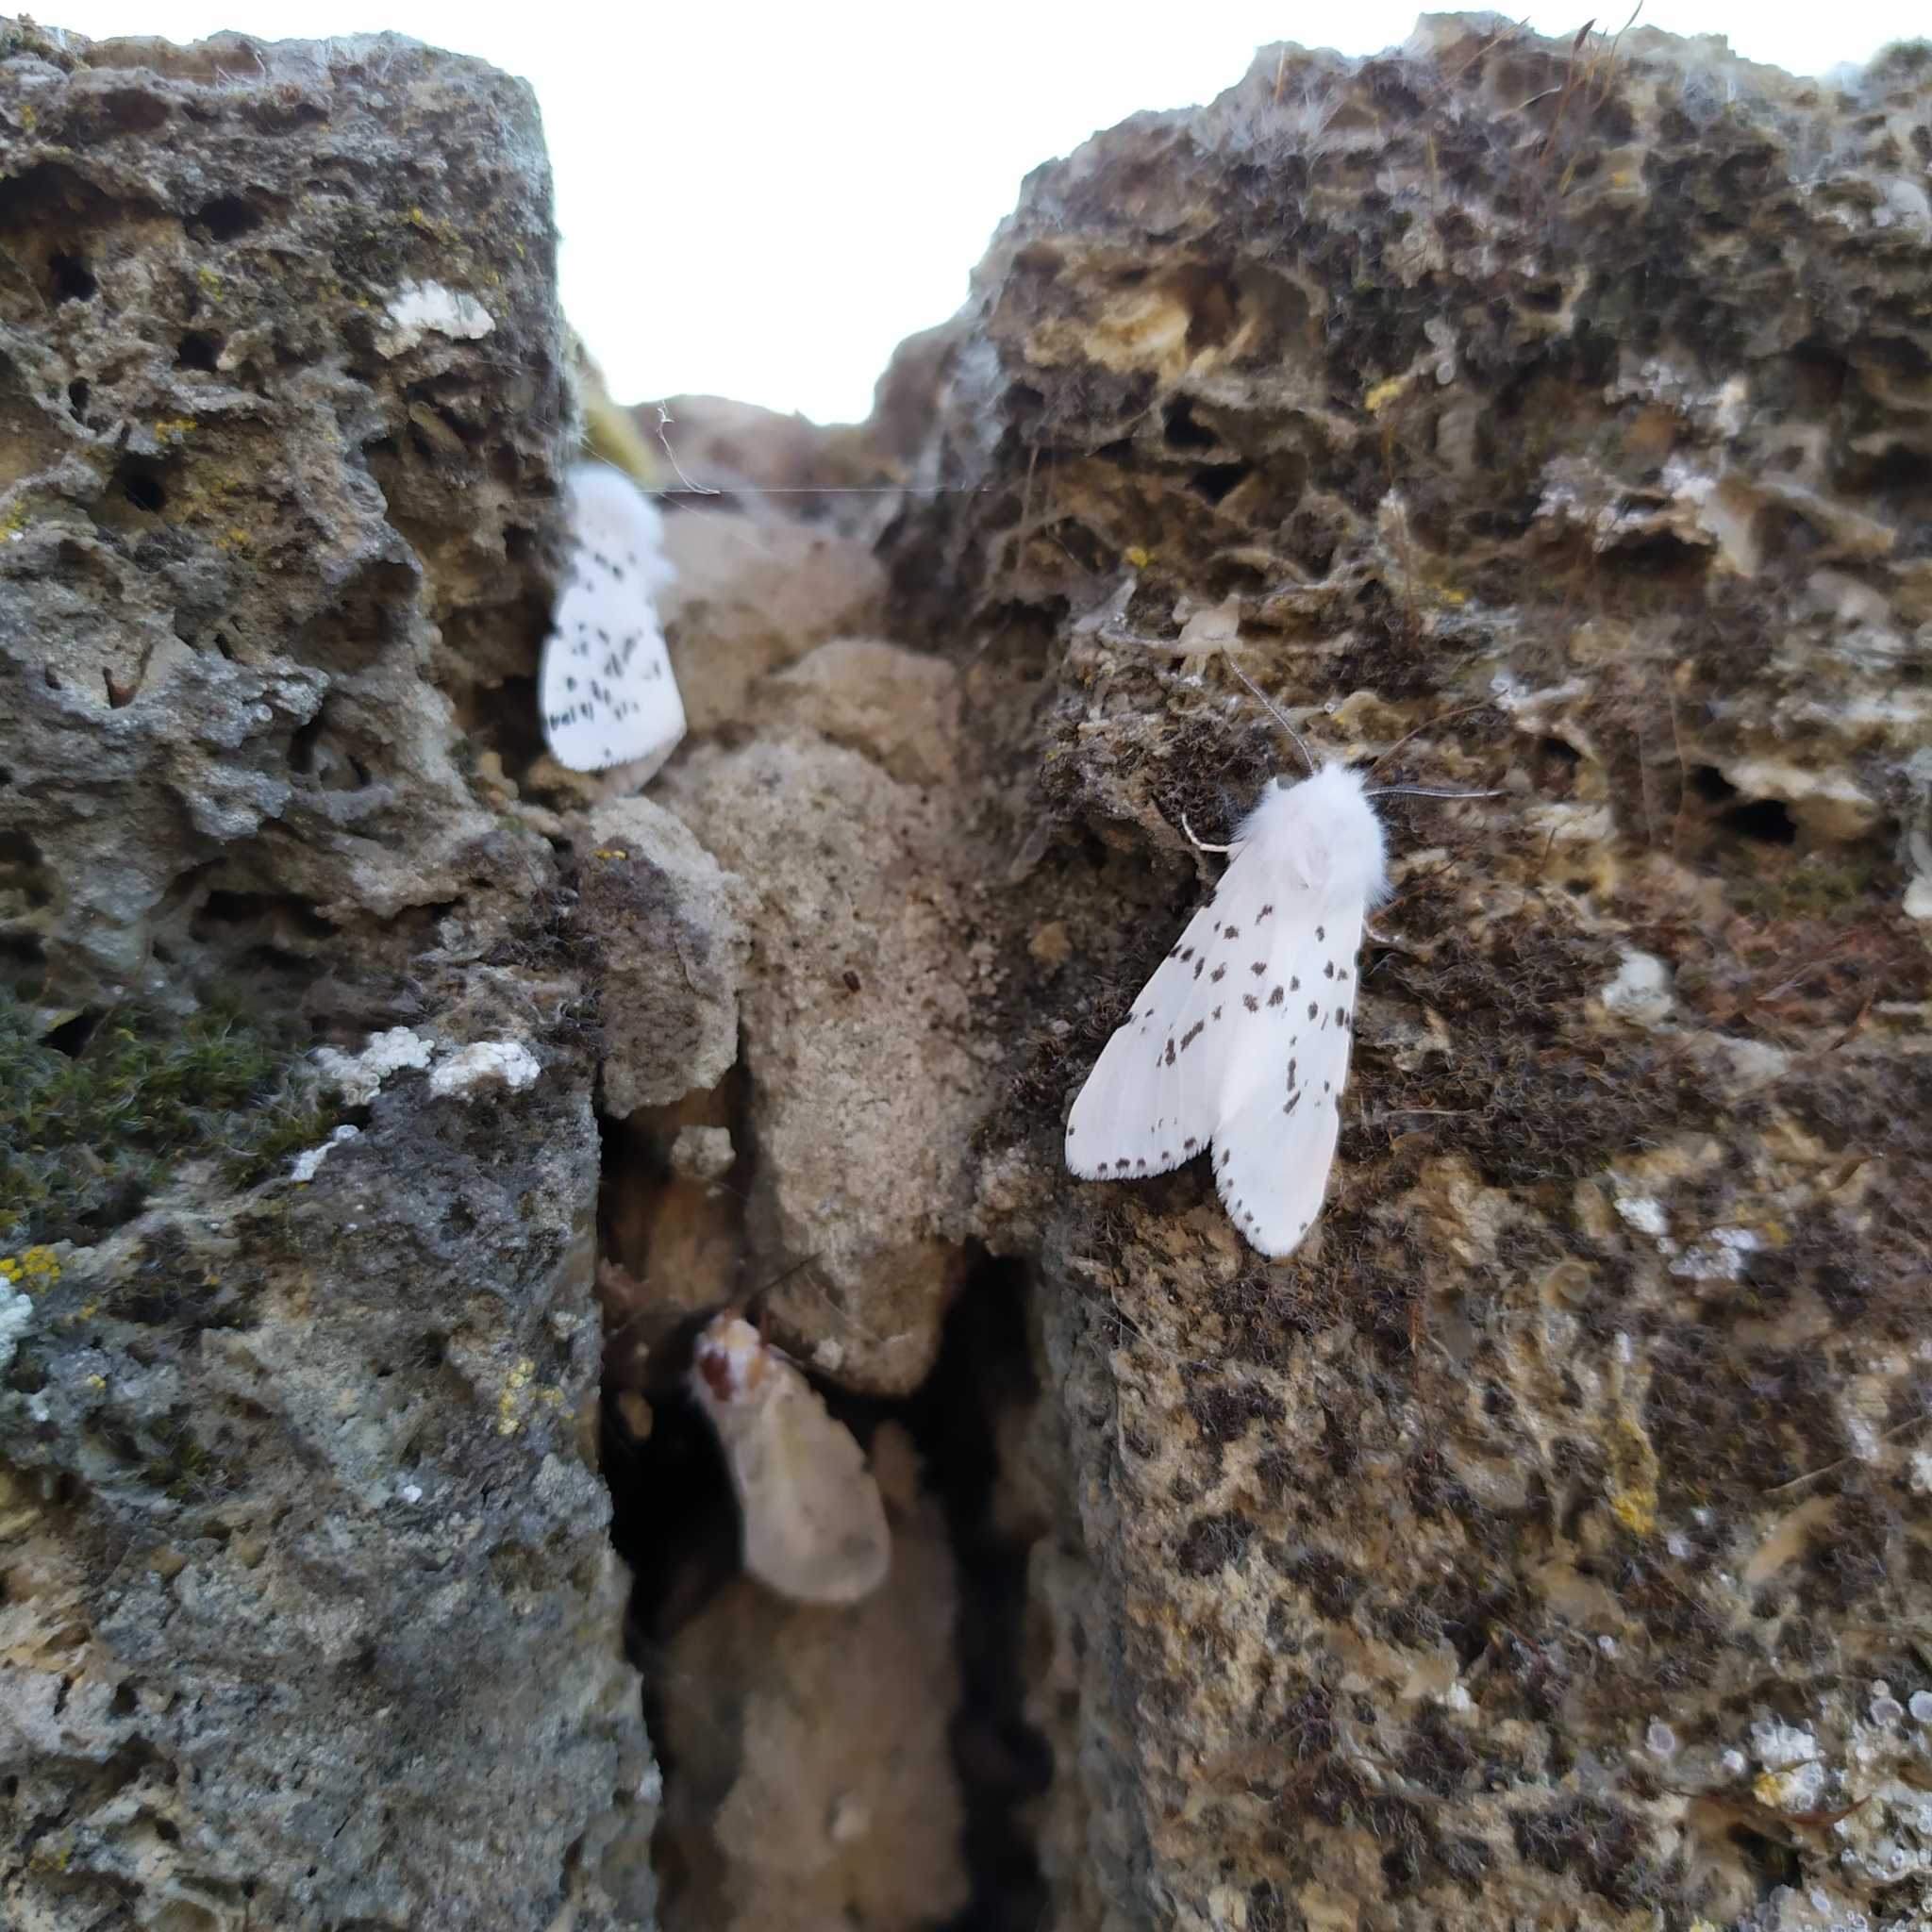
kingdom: Animalia
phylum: Arthropoda
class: Insecta
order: Lepidoptera
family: Erebidae
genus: Hyphantria
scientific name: Hyphantria cunea
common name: American white moth
